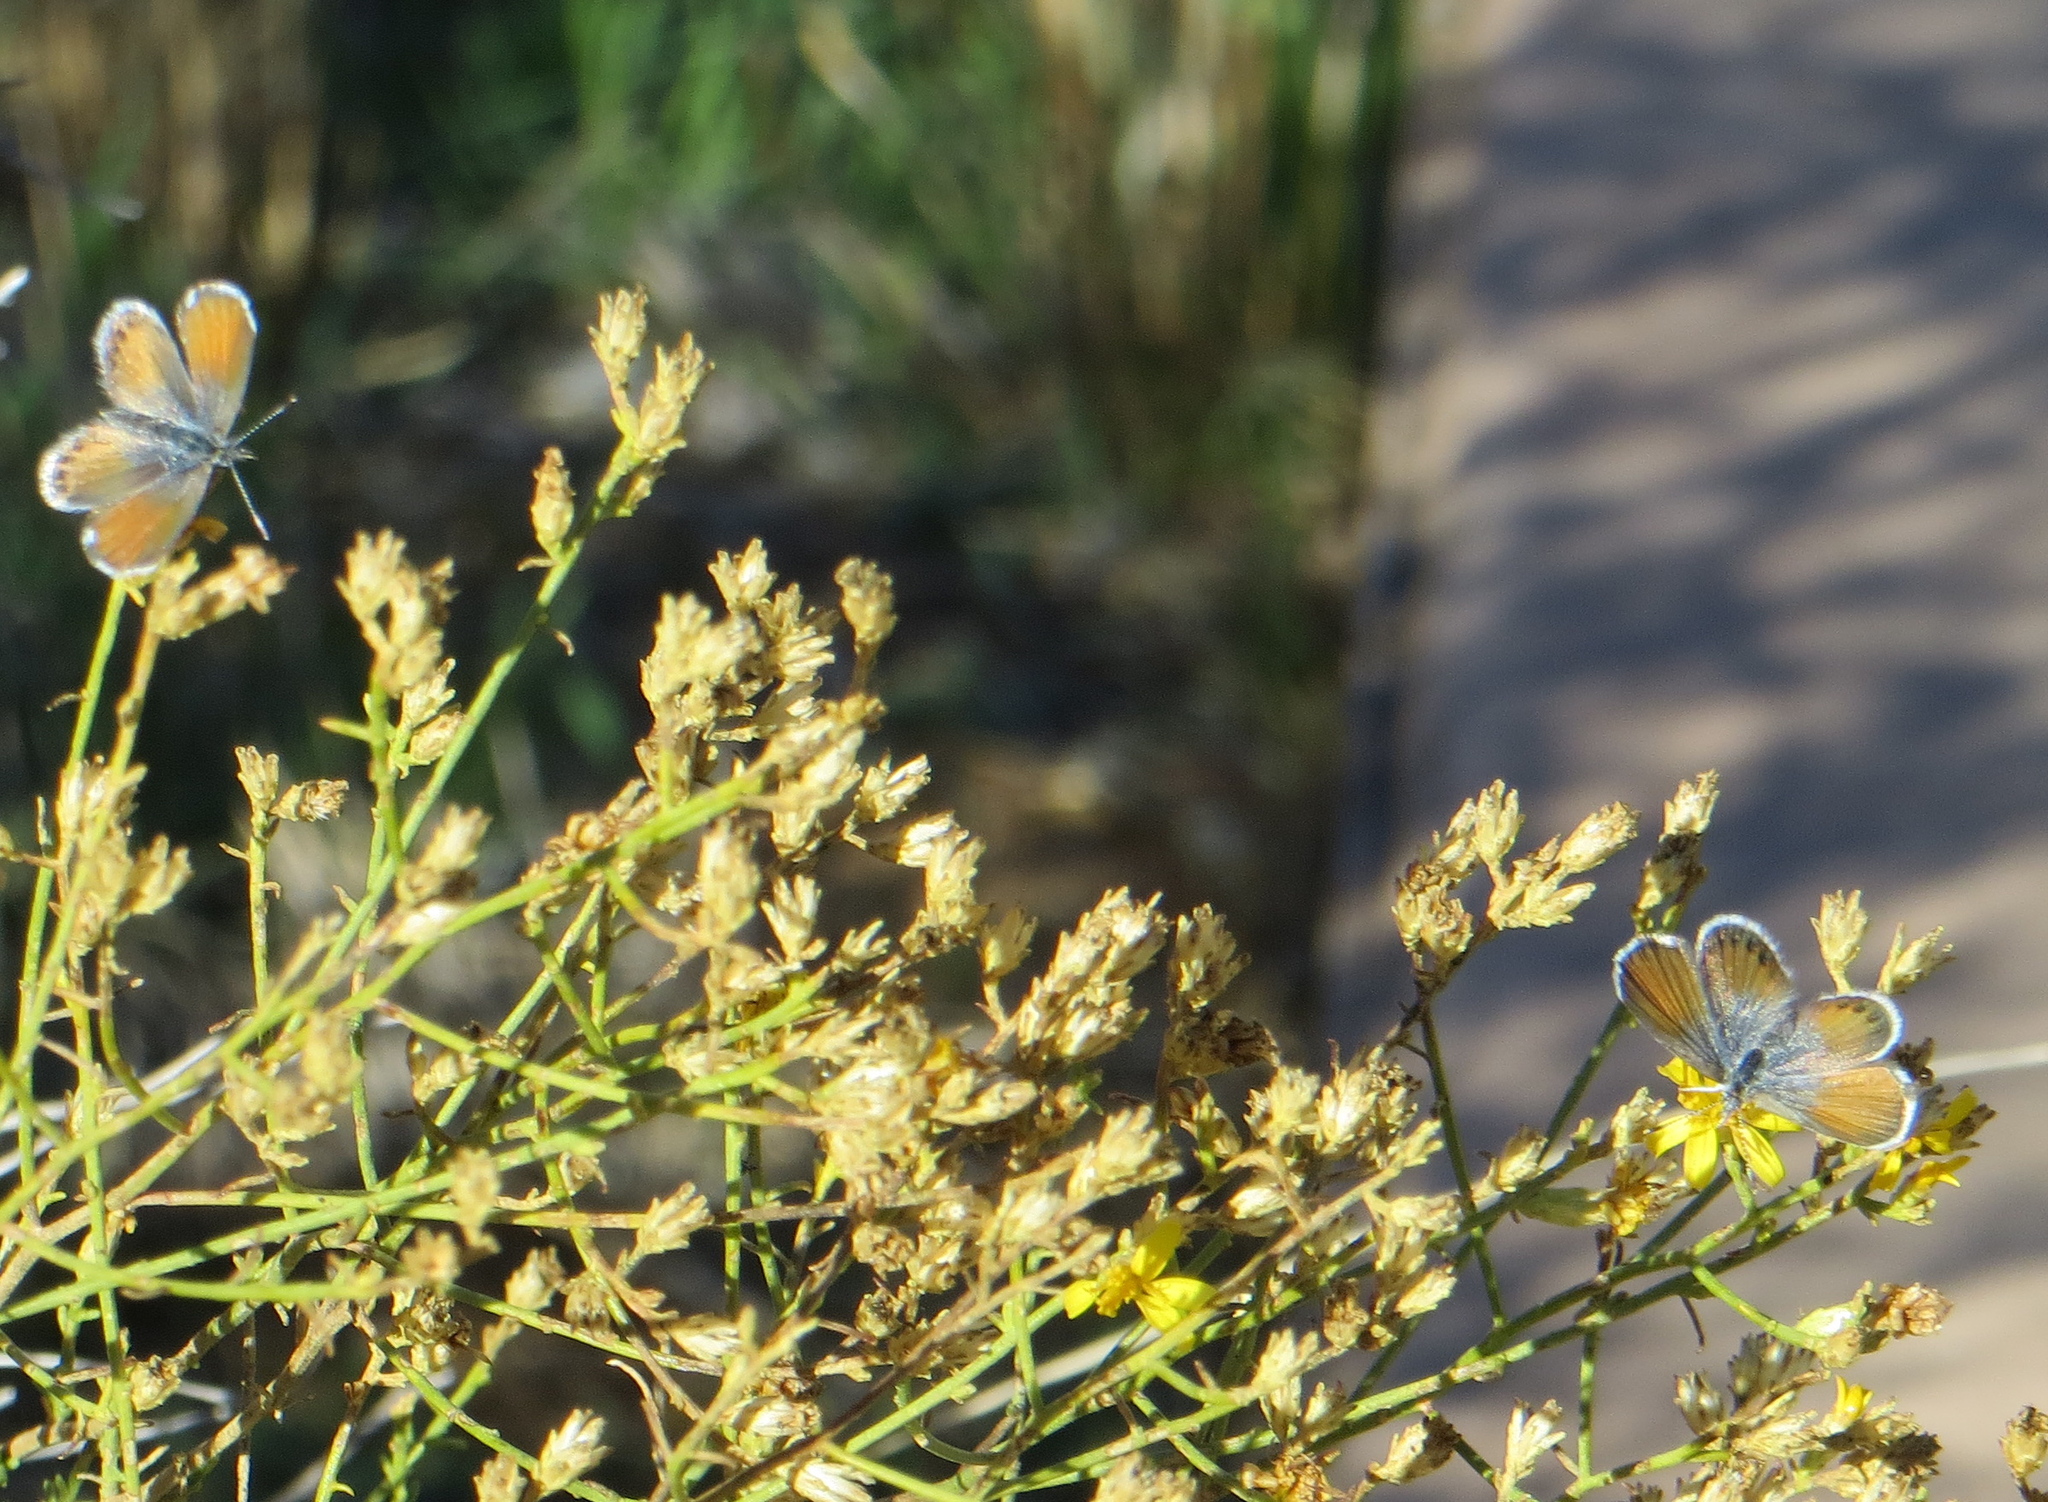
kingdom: Animalia
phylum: Arthropoda
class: Insecta
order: Lepidoptera
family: Lycaenidae
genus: Brephidium
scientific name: Brephidium exilis
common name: Pygmy blue
